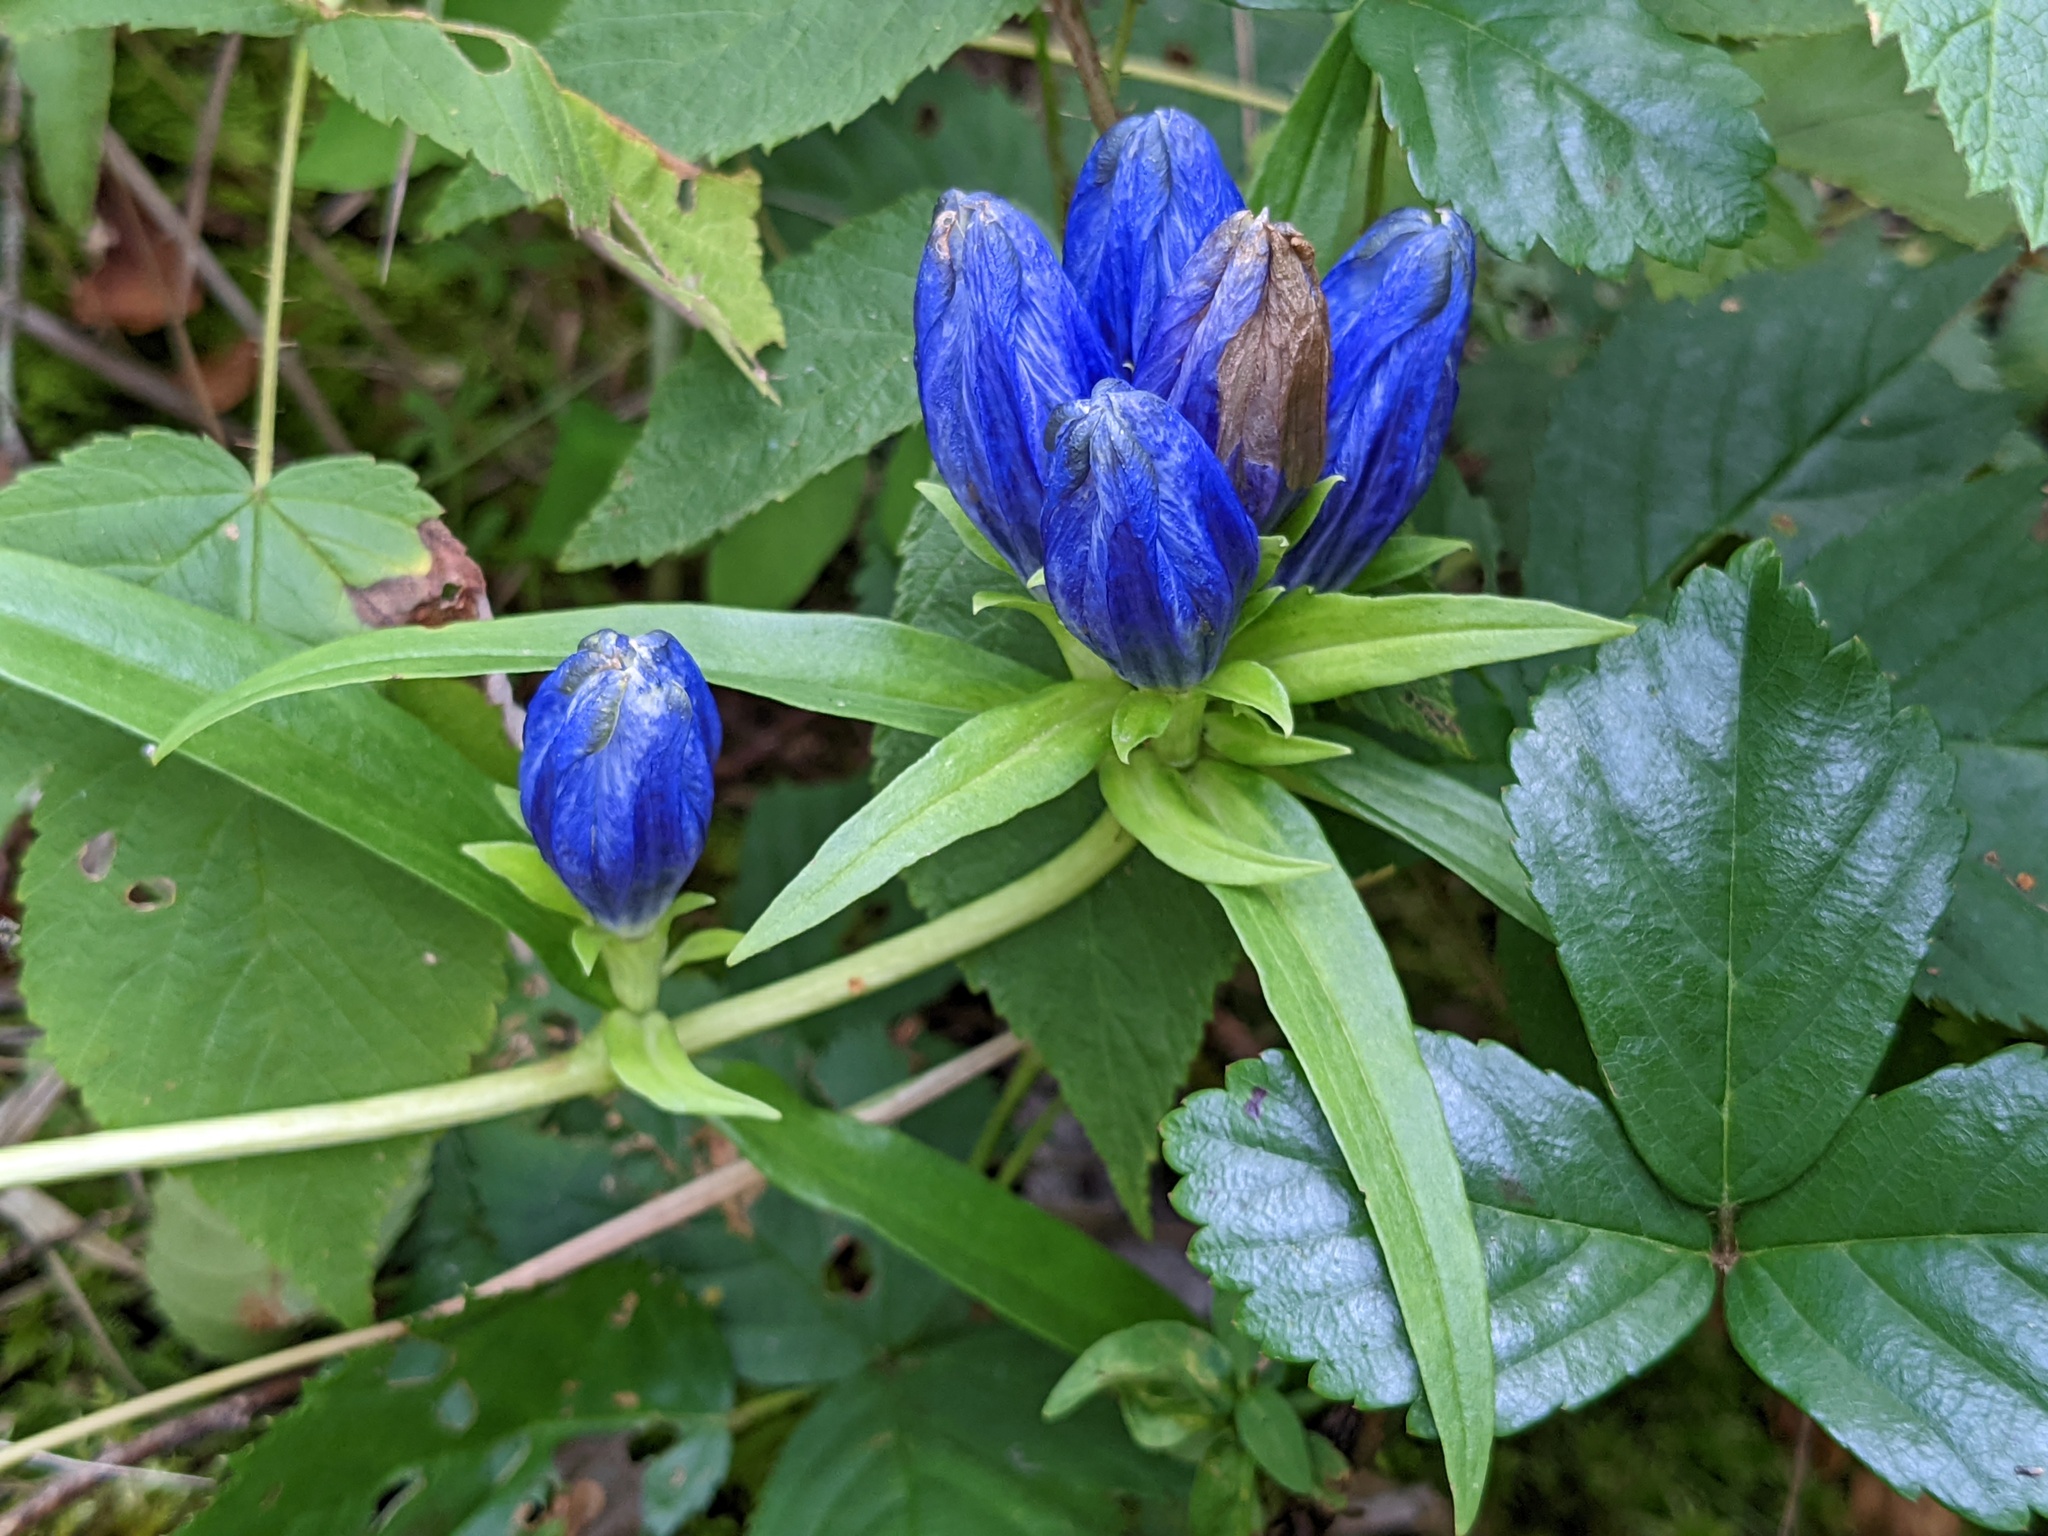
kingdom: Plantae
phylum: Tracheophyta
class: Magnoliopsida
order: Gentianales
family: Gentianaceae
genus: Gentiana
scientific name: Gentiana linearis
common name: Bastard gentian
